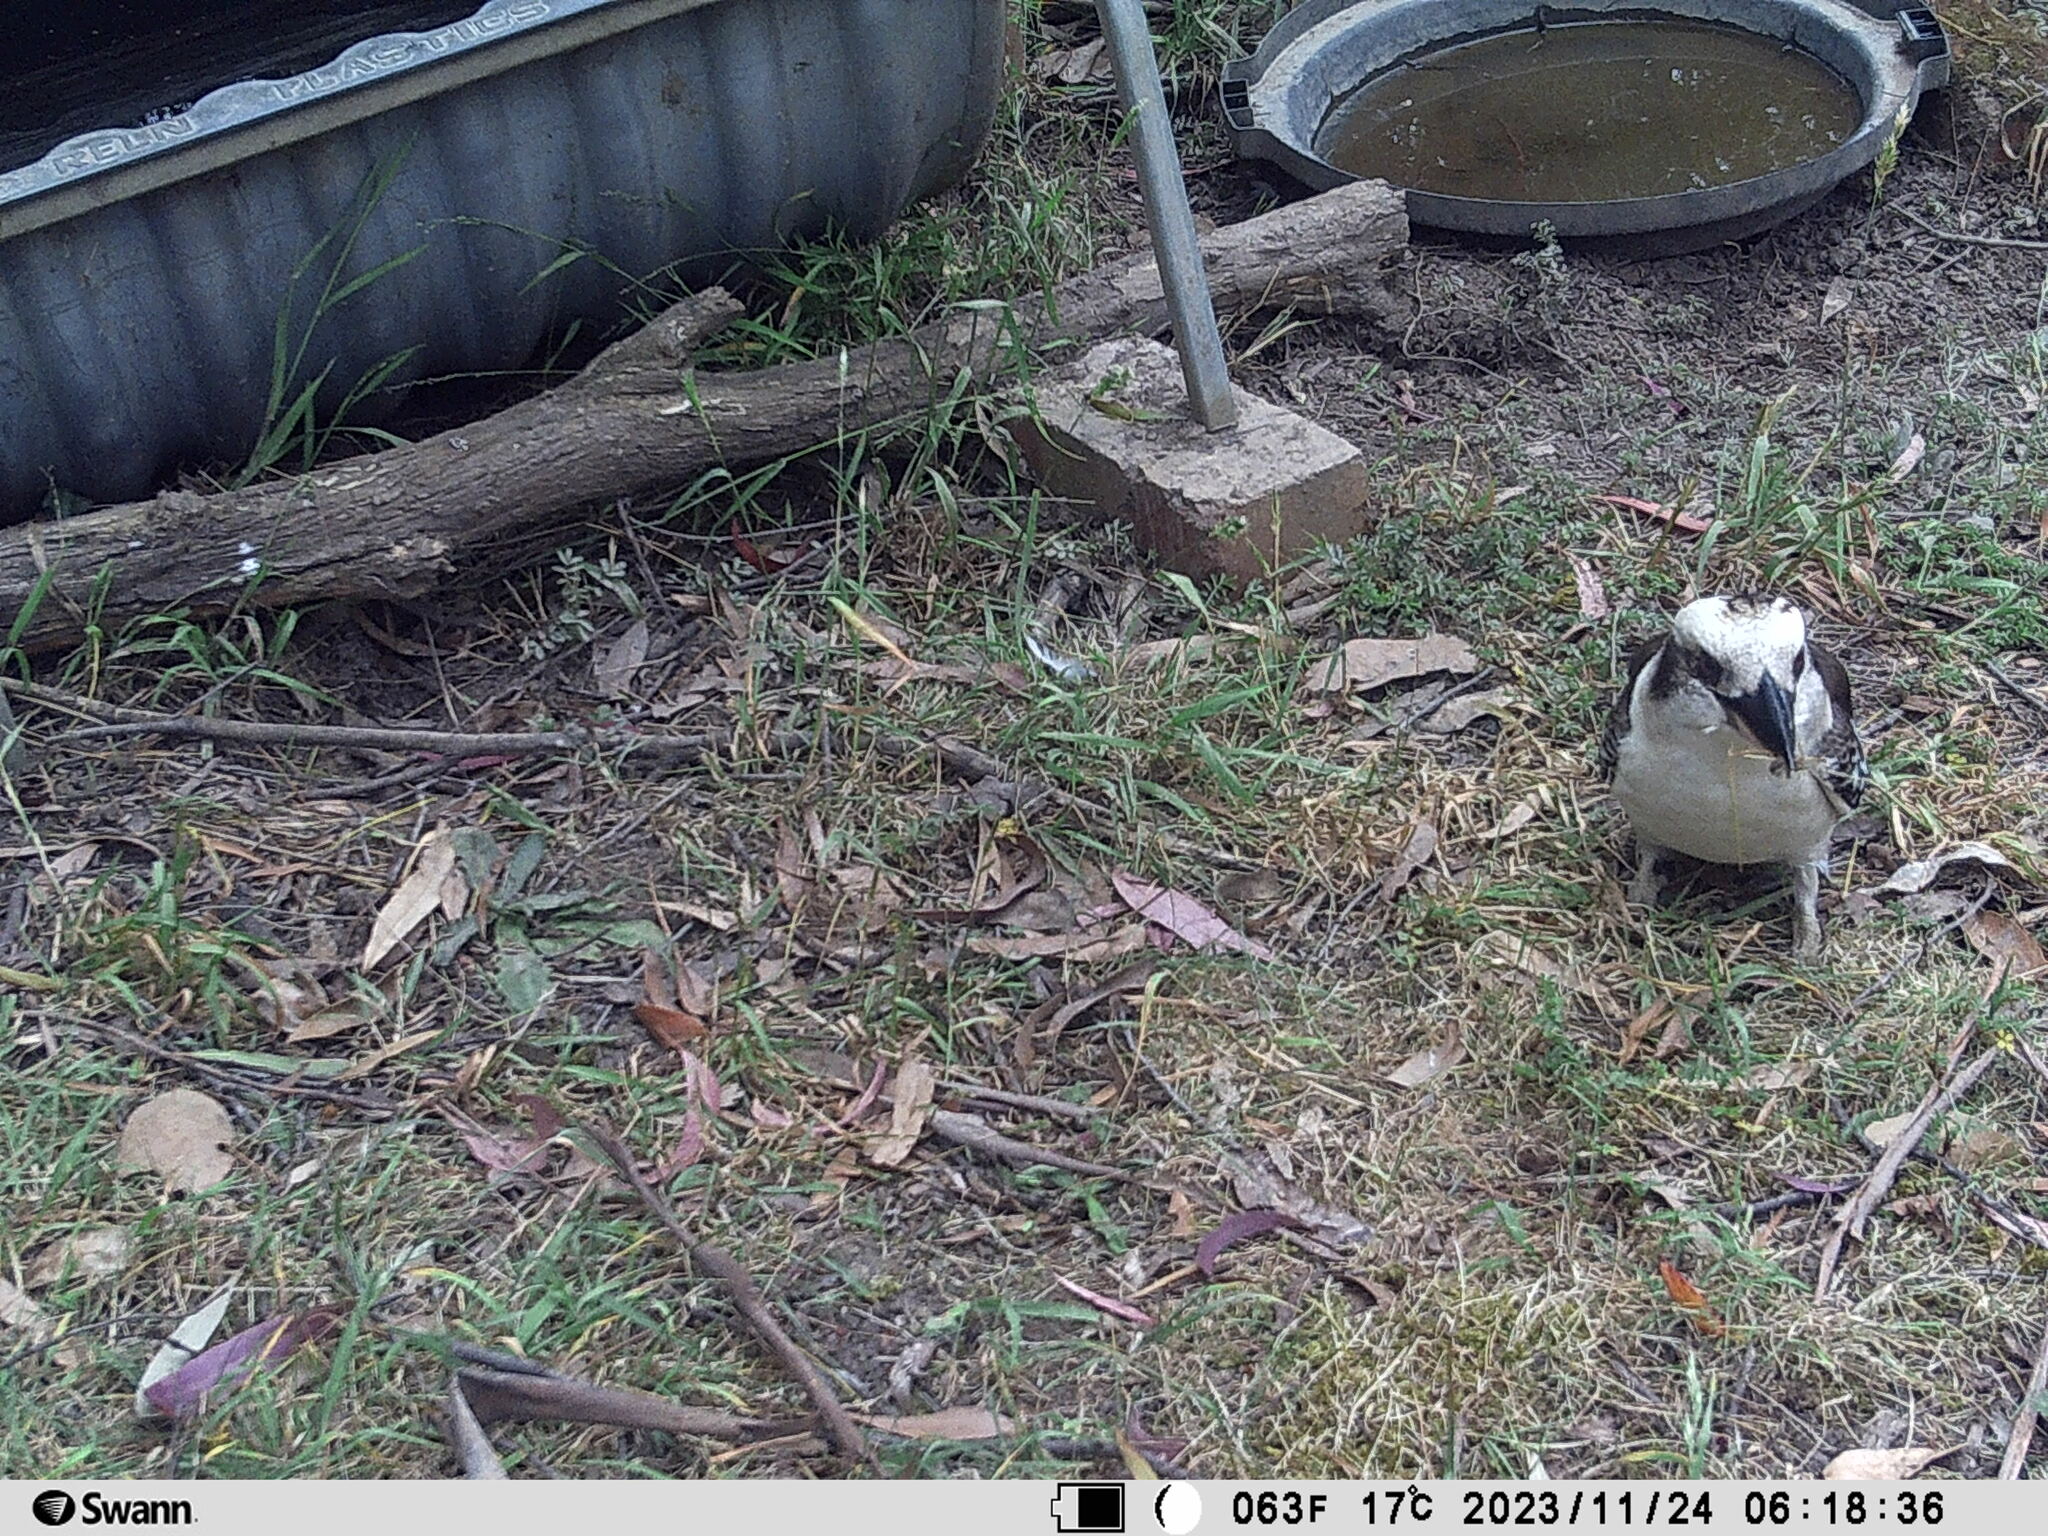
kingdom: Animalia
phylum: Chordata
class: Aves
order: Coraciiformes
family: Alcedinidae
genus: Dacelo
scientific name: Dacelo novaeguineae
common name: Laughing kookaburra
